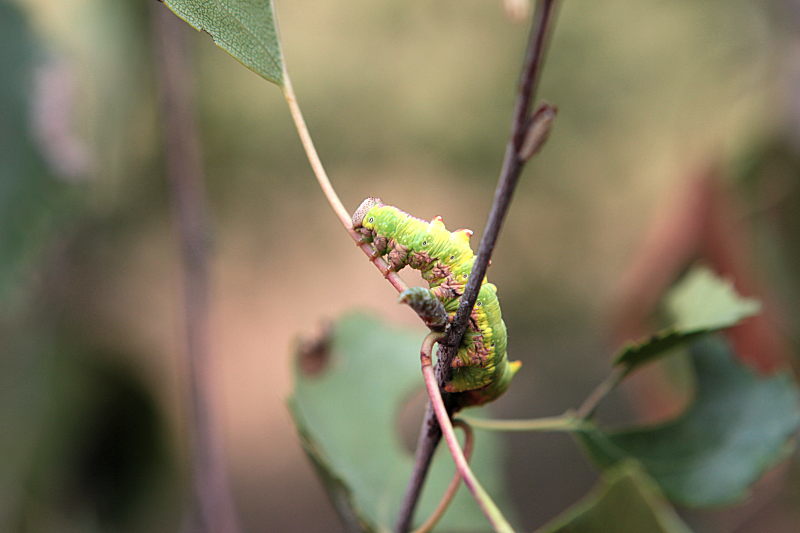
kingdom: Animalia
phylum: Arthropoda
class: Insecta
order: Lepidoptera
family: Notodontidae
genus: Notodonta
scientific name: Notodonta dromedarius
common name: Iron prominent
